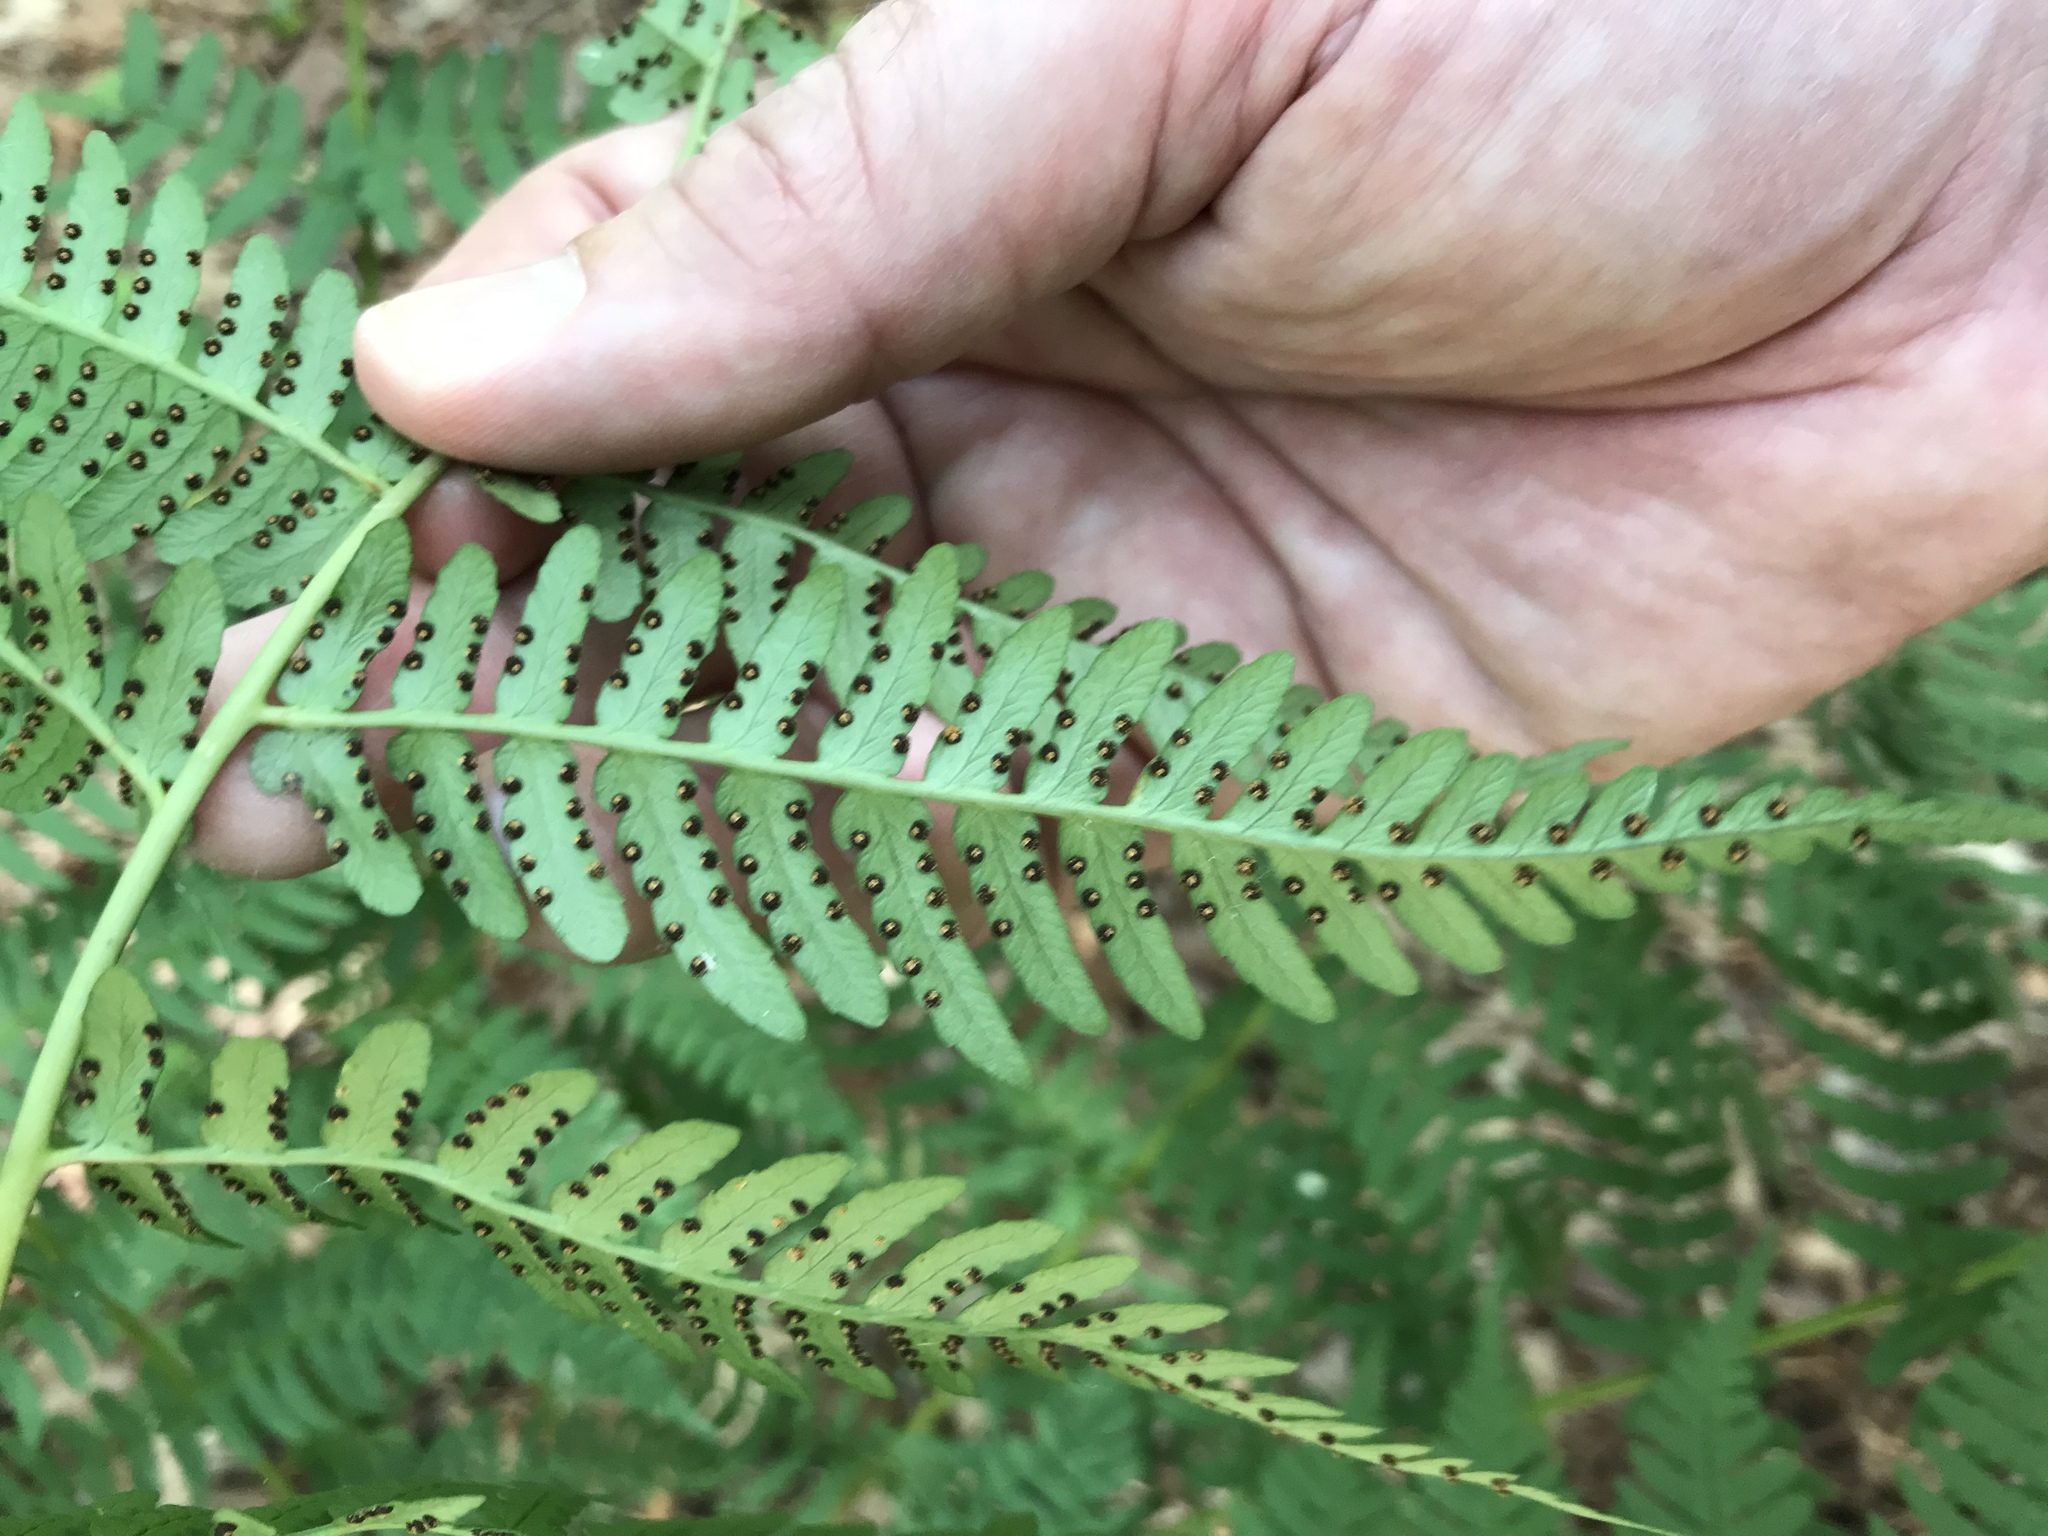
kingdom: Plantae
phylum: Tracheophyta
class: Polypodiopsida
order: Polypodiales
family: Dryopteridaceae
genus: Dryopteris
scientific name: Dryopteris marginalis
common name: Marginal wood fern
